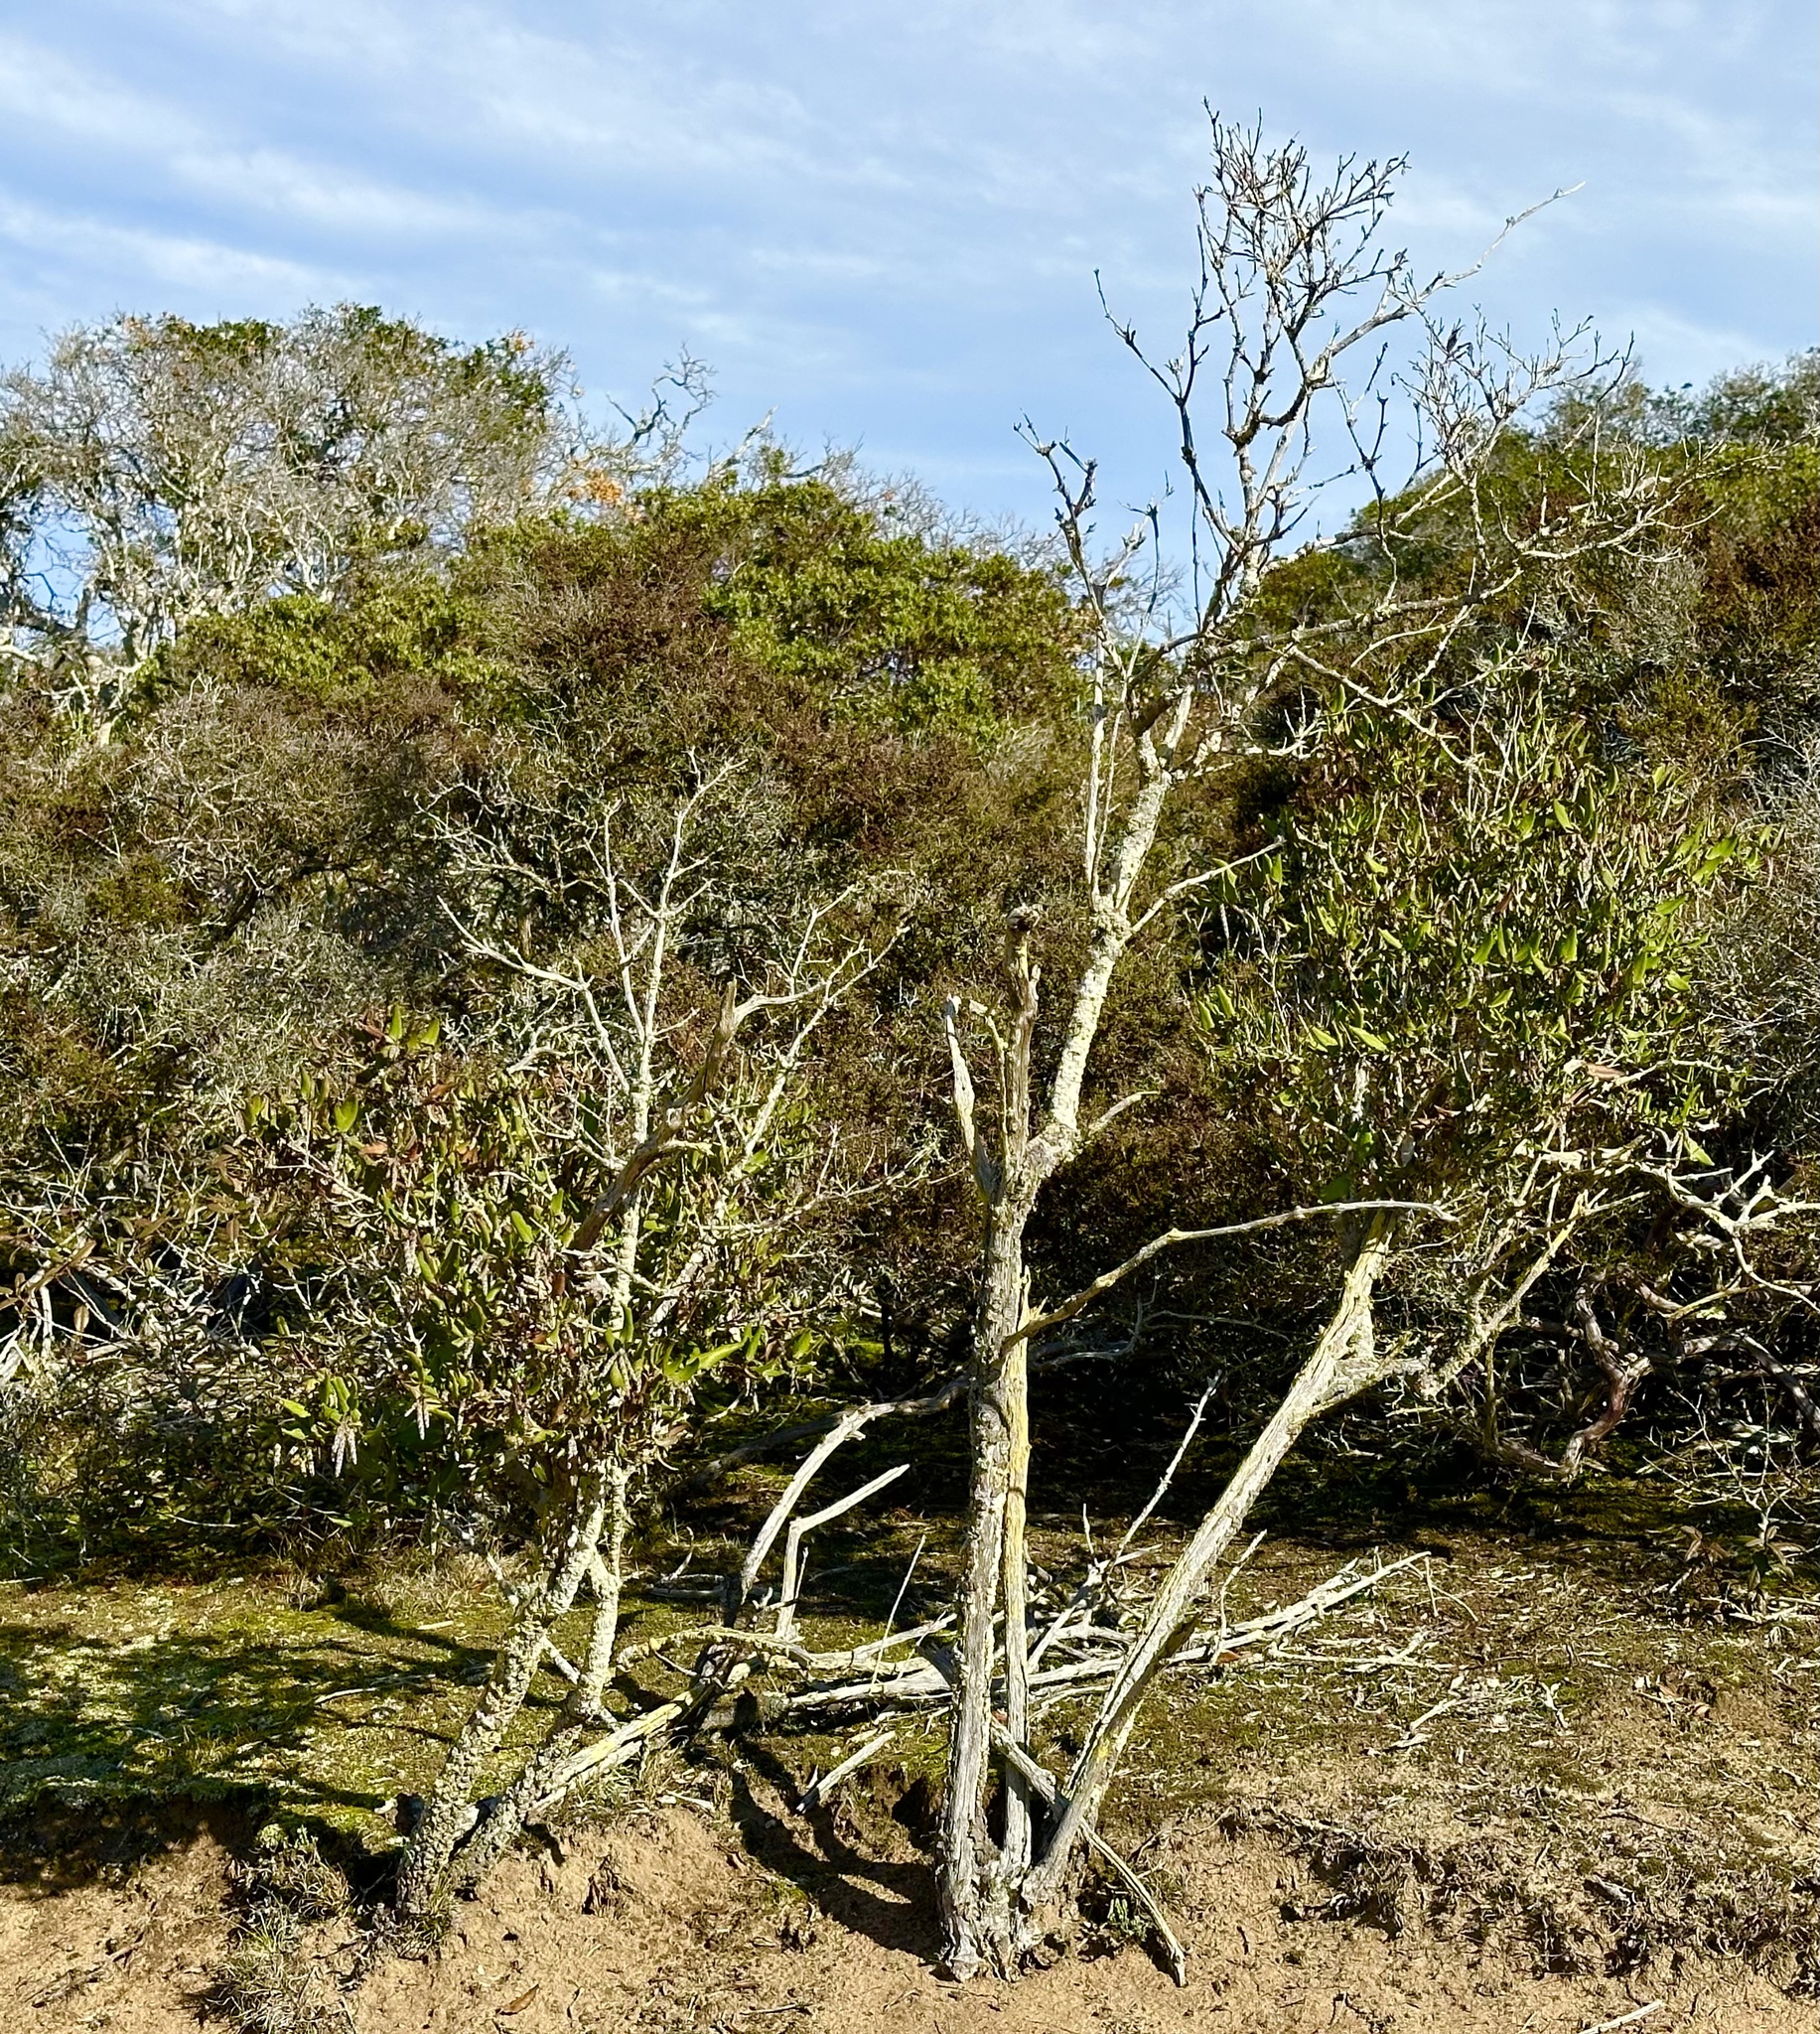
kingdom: Plantae
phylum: Tracheophyta
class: Magnoliopsida
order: Garryales
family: Garryaceae
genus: Garrya
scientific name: Garrya elliptica
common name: Silk-tassel
